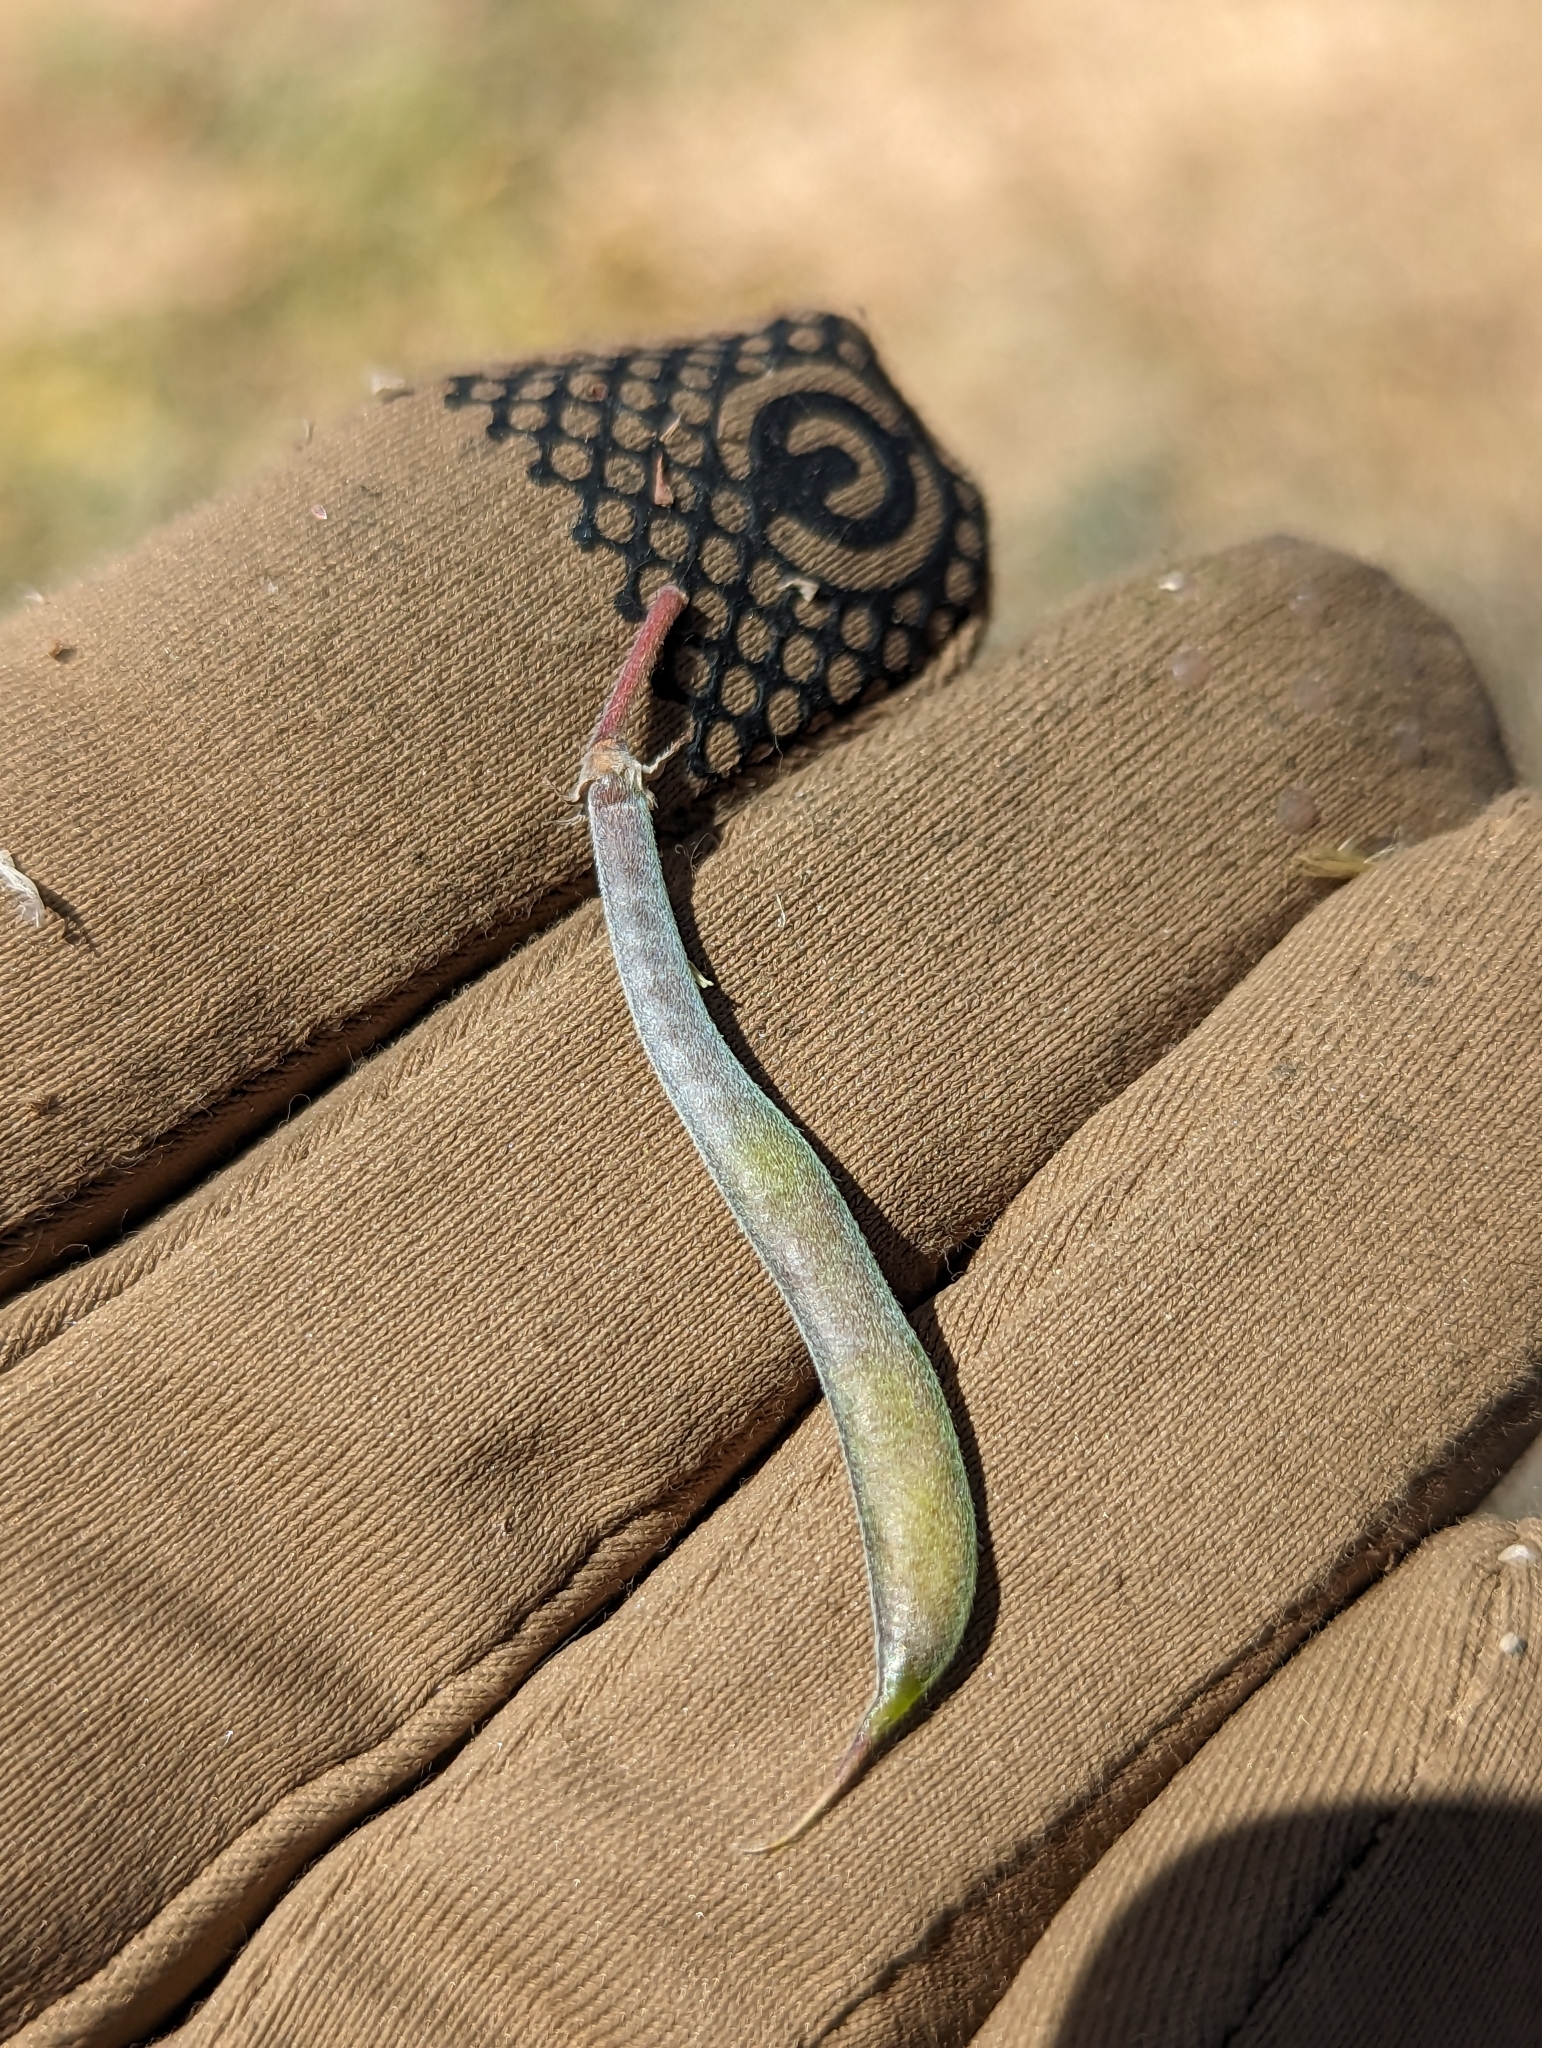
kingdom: Plantae
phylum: Tracheophyta
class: Magnoliopsida
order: Fabales
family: Fabaceae
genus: Tephrosia
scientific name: Tephrosia cana
